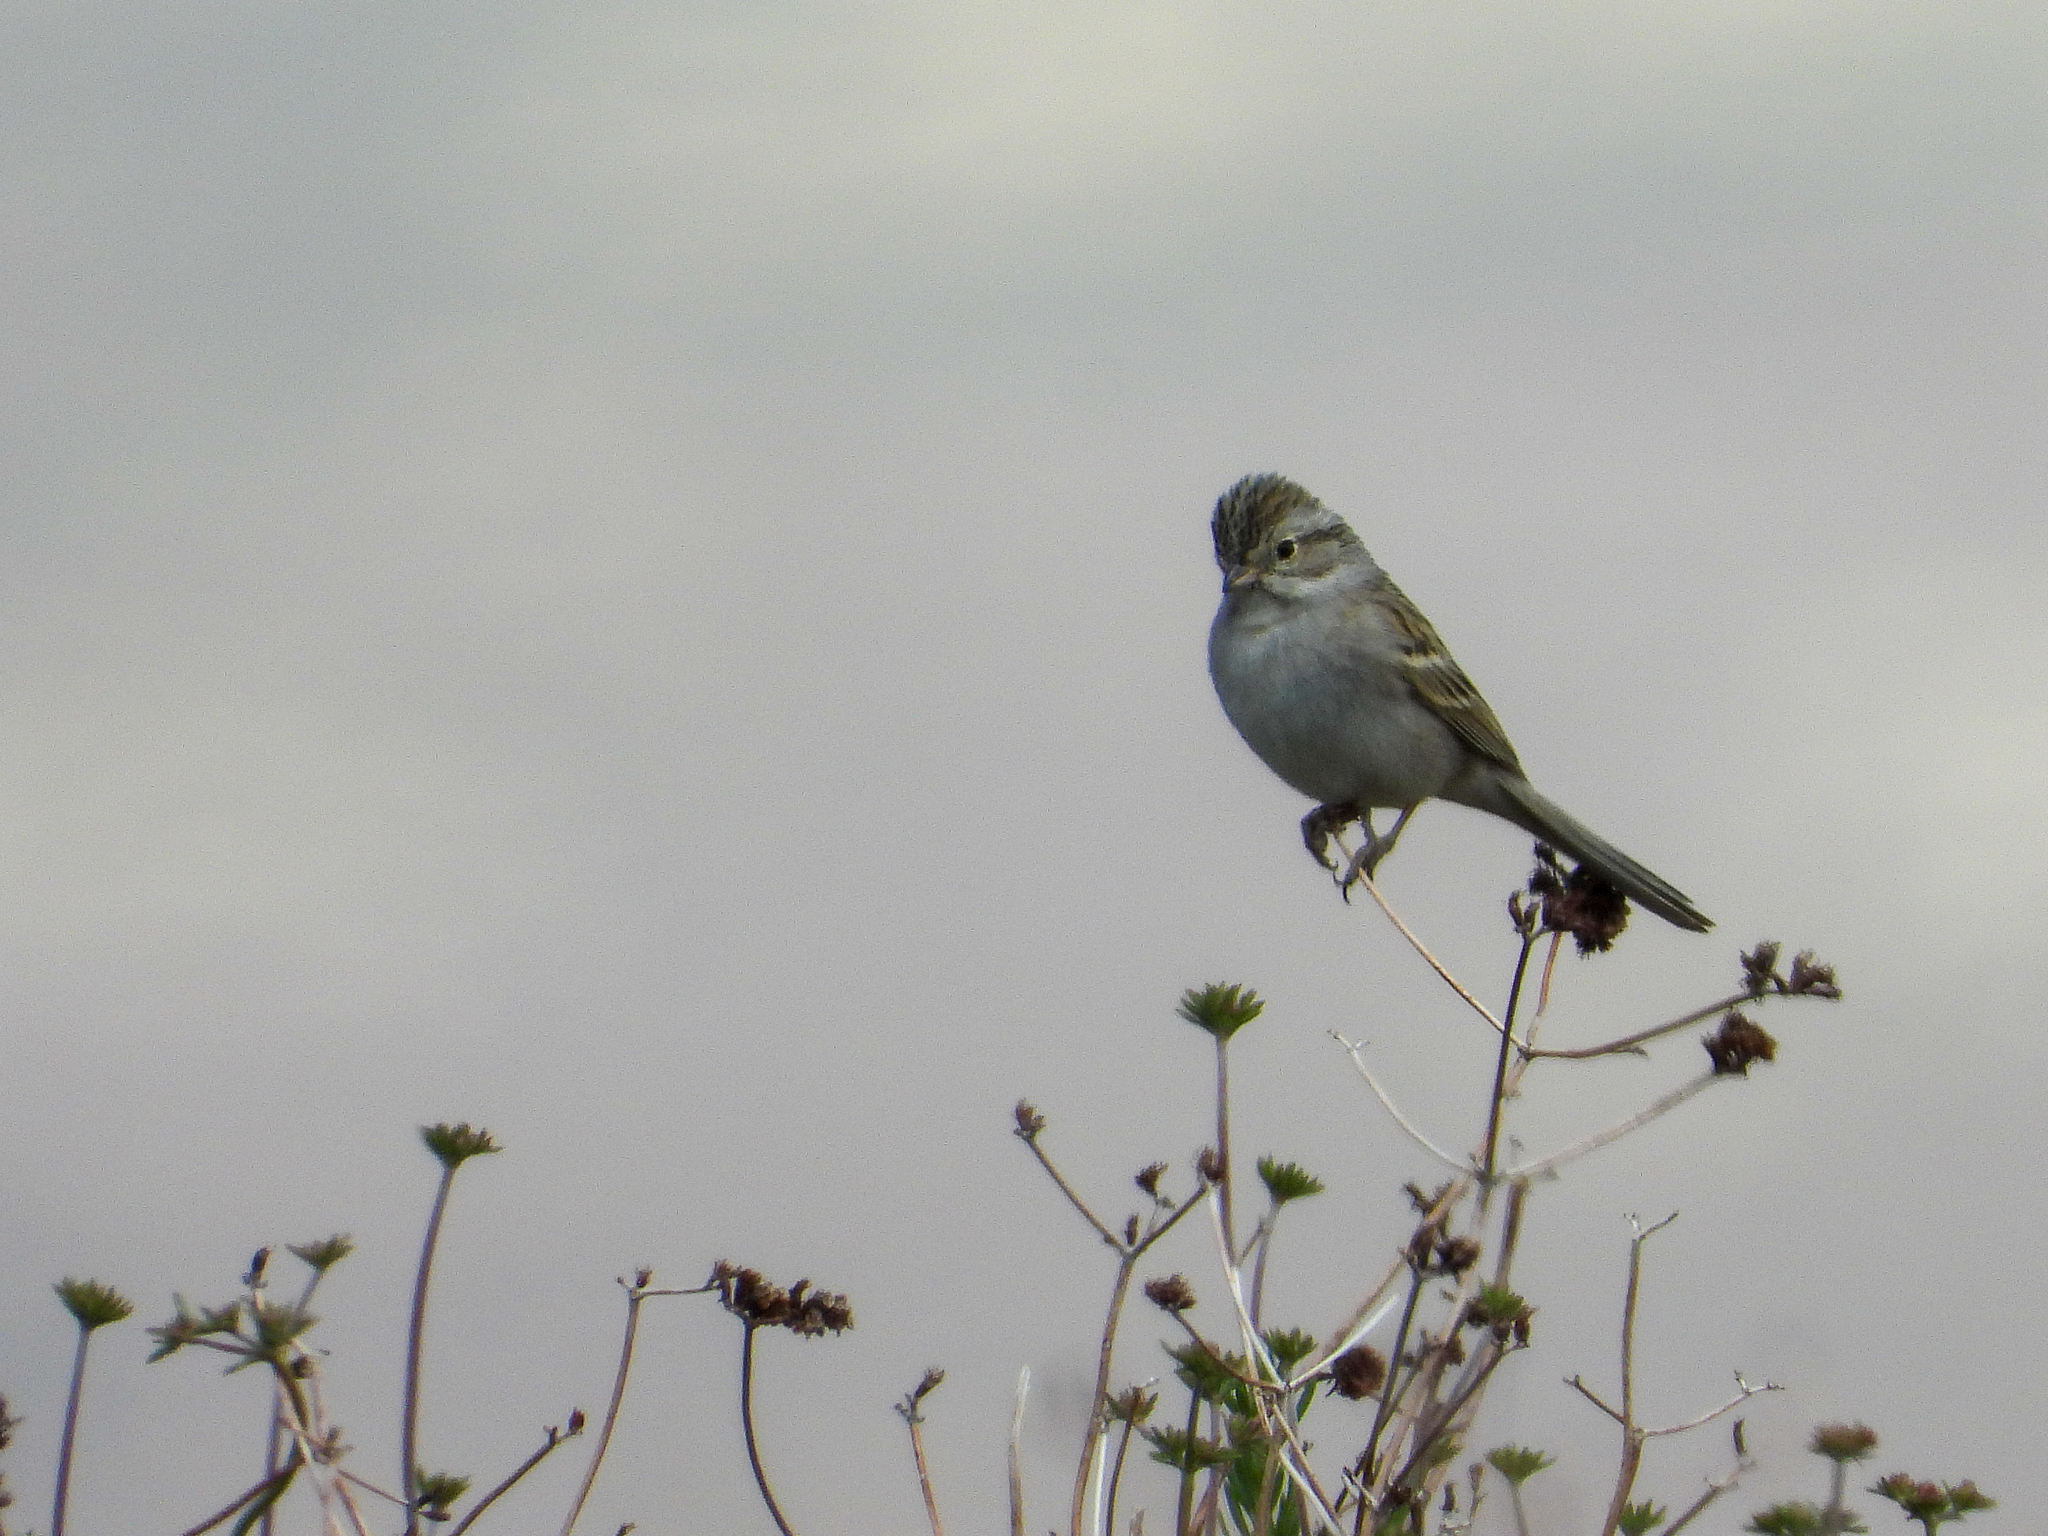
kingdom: Animalia
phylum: Chordata
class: Aves
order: Passeriformes
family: Passerellidae
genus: Spizella
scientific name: Spizella breweri
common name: Brewer's sparrow
